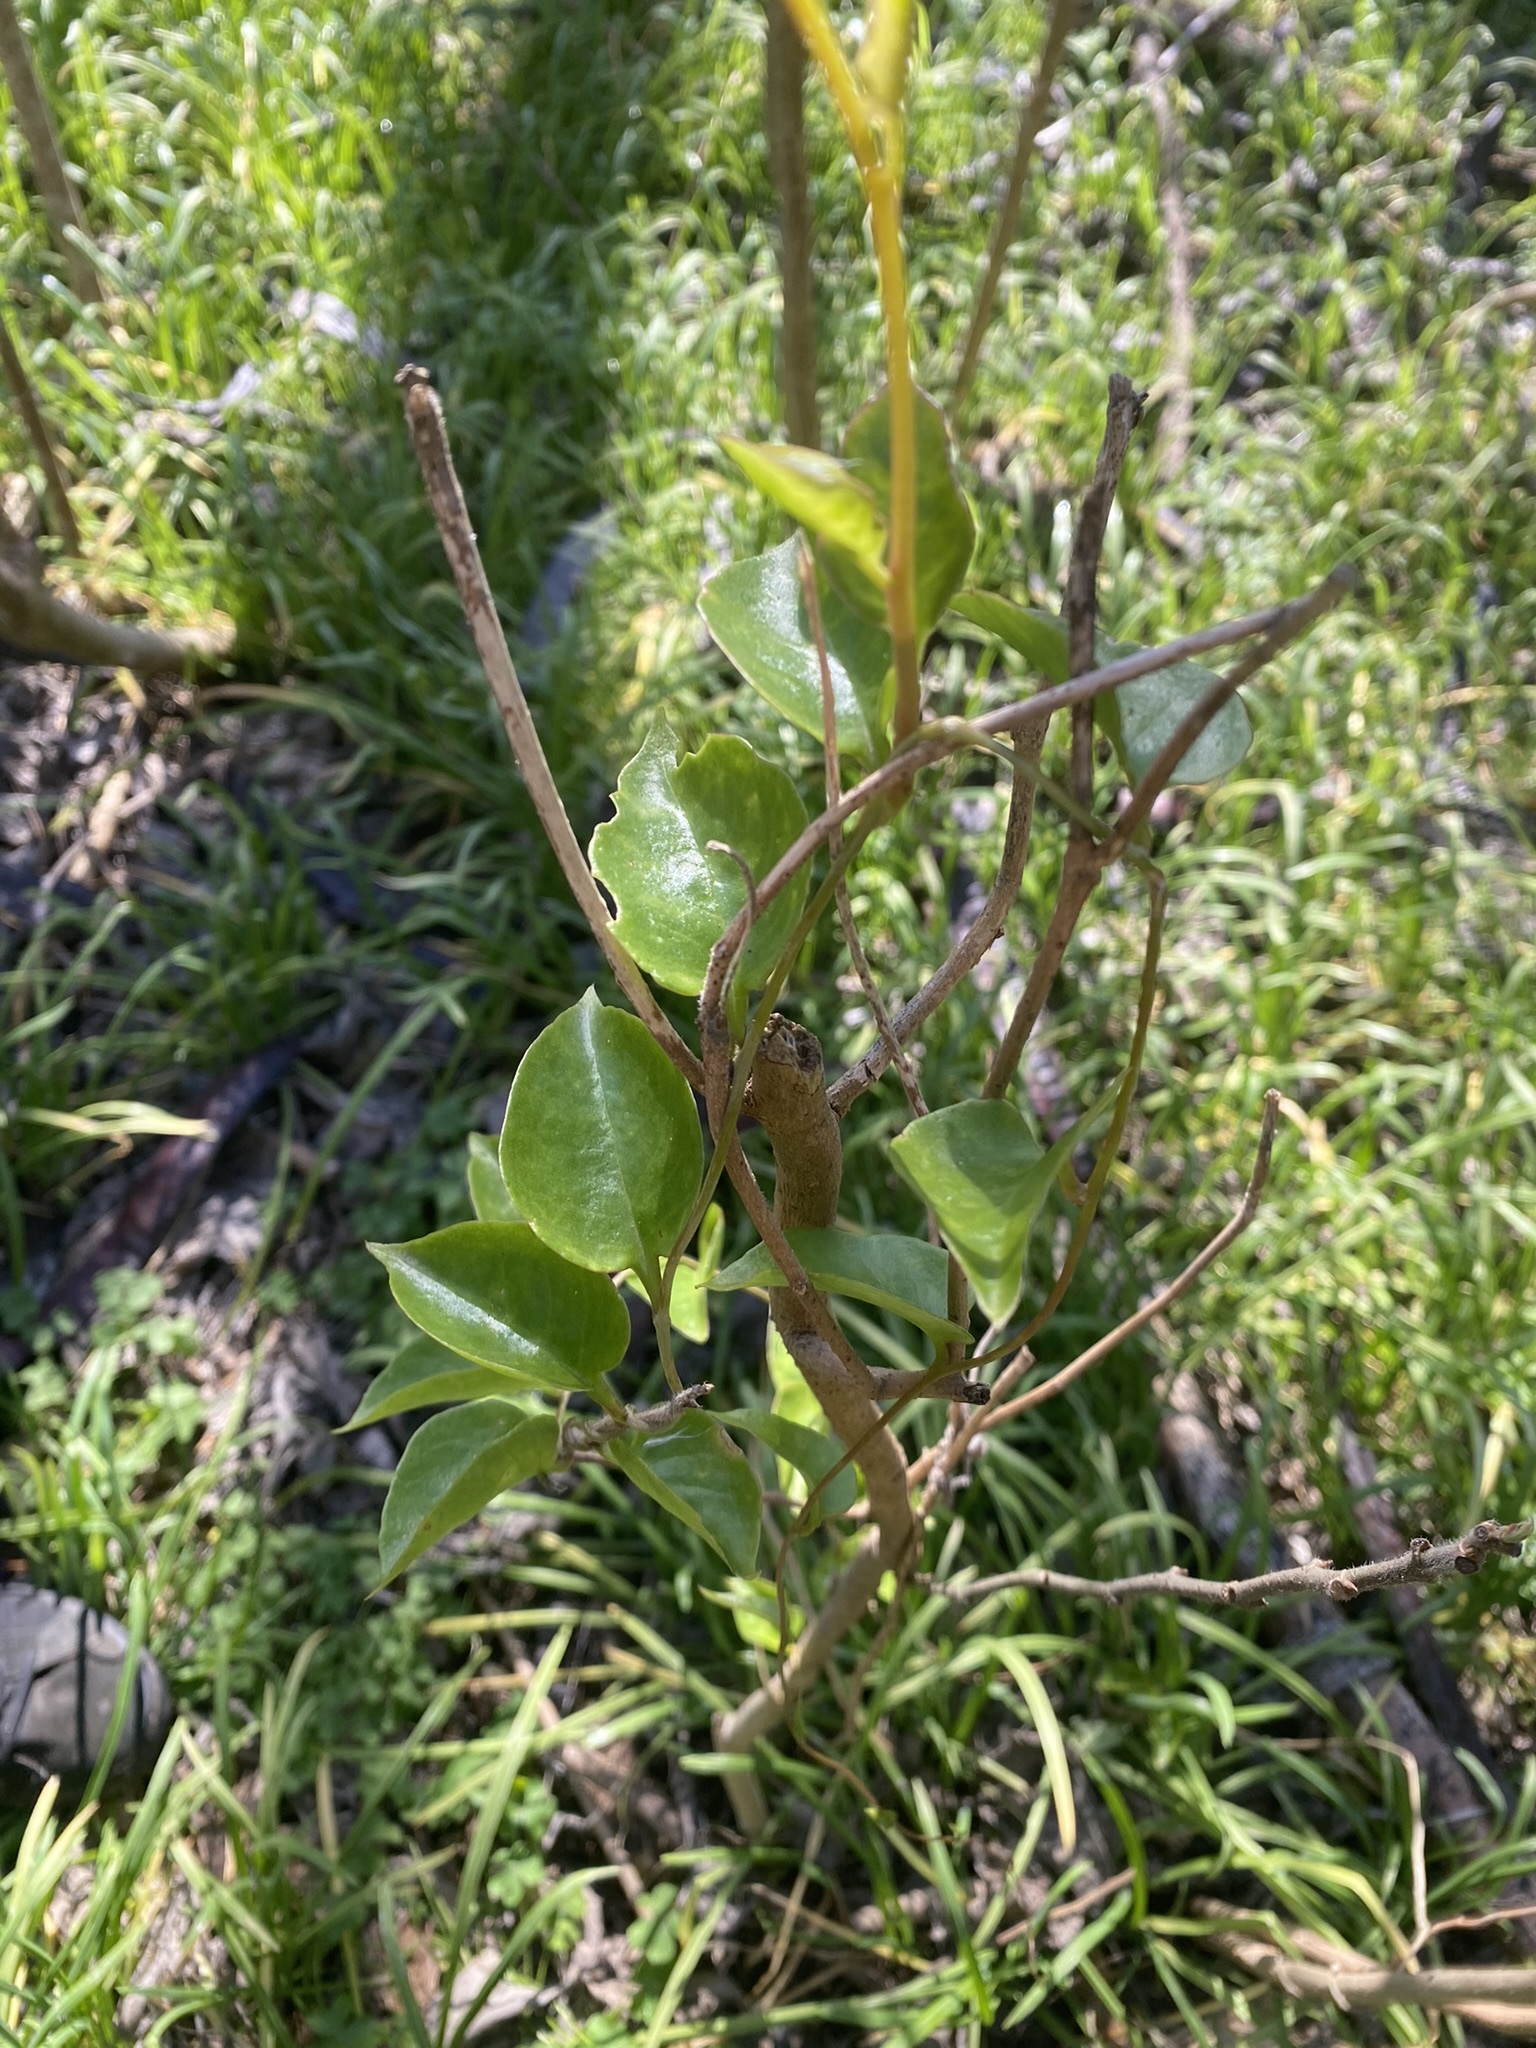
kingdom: Plantae
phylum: Tracheophyta
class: Magnoliopsida
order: Caryophyllales
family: Basellaceae
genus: Anredera
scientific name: Anredera cordifolia
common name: Heartleaf madeiravine
